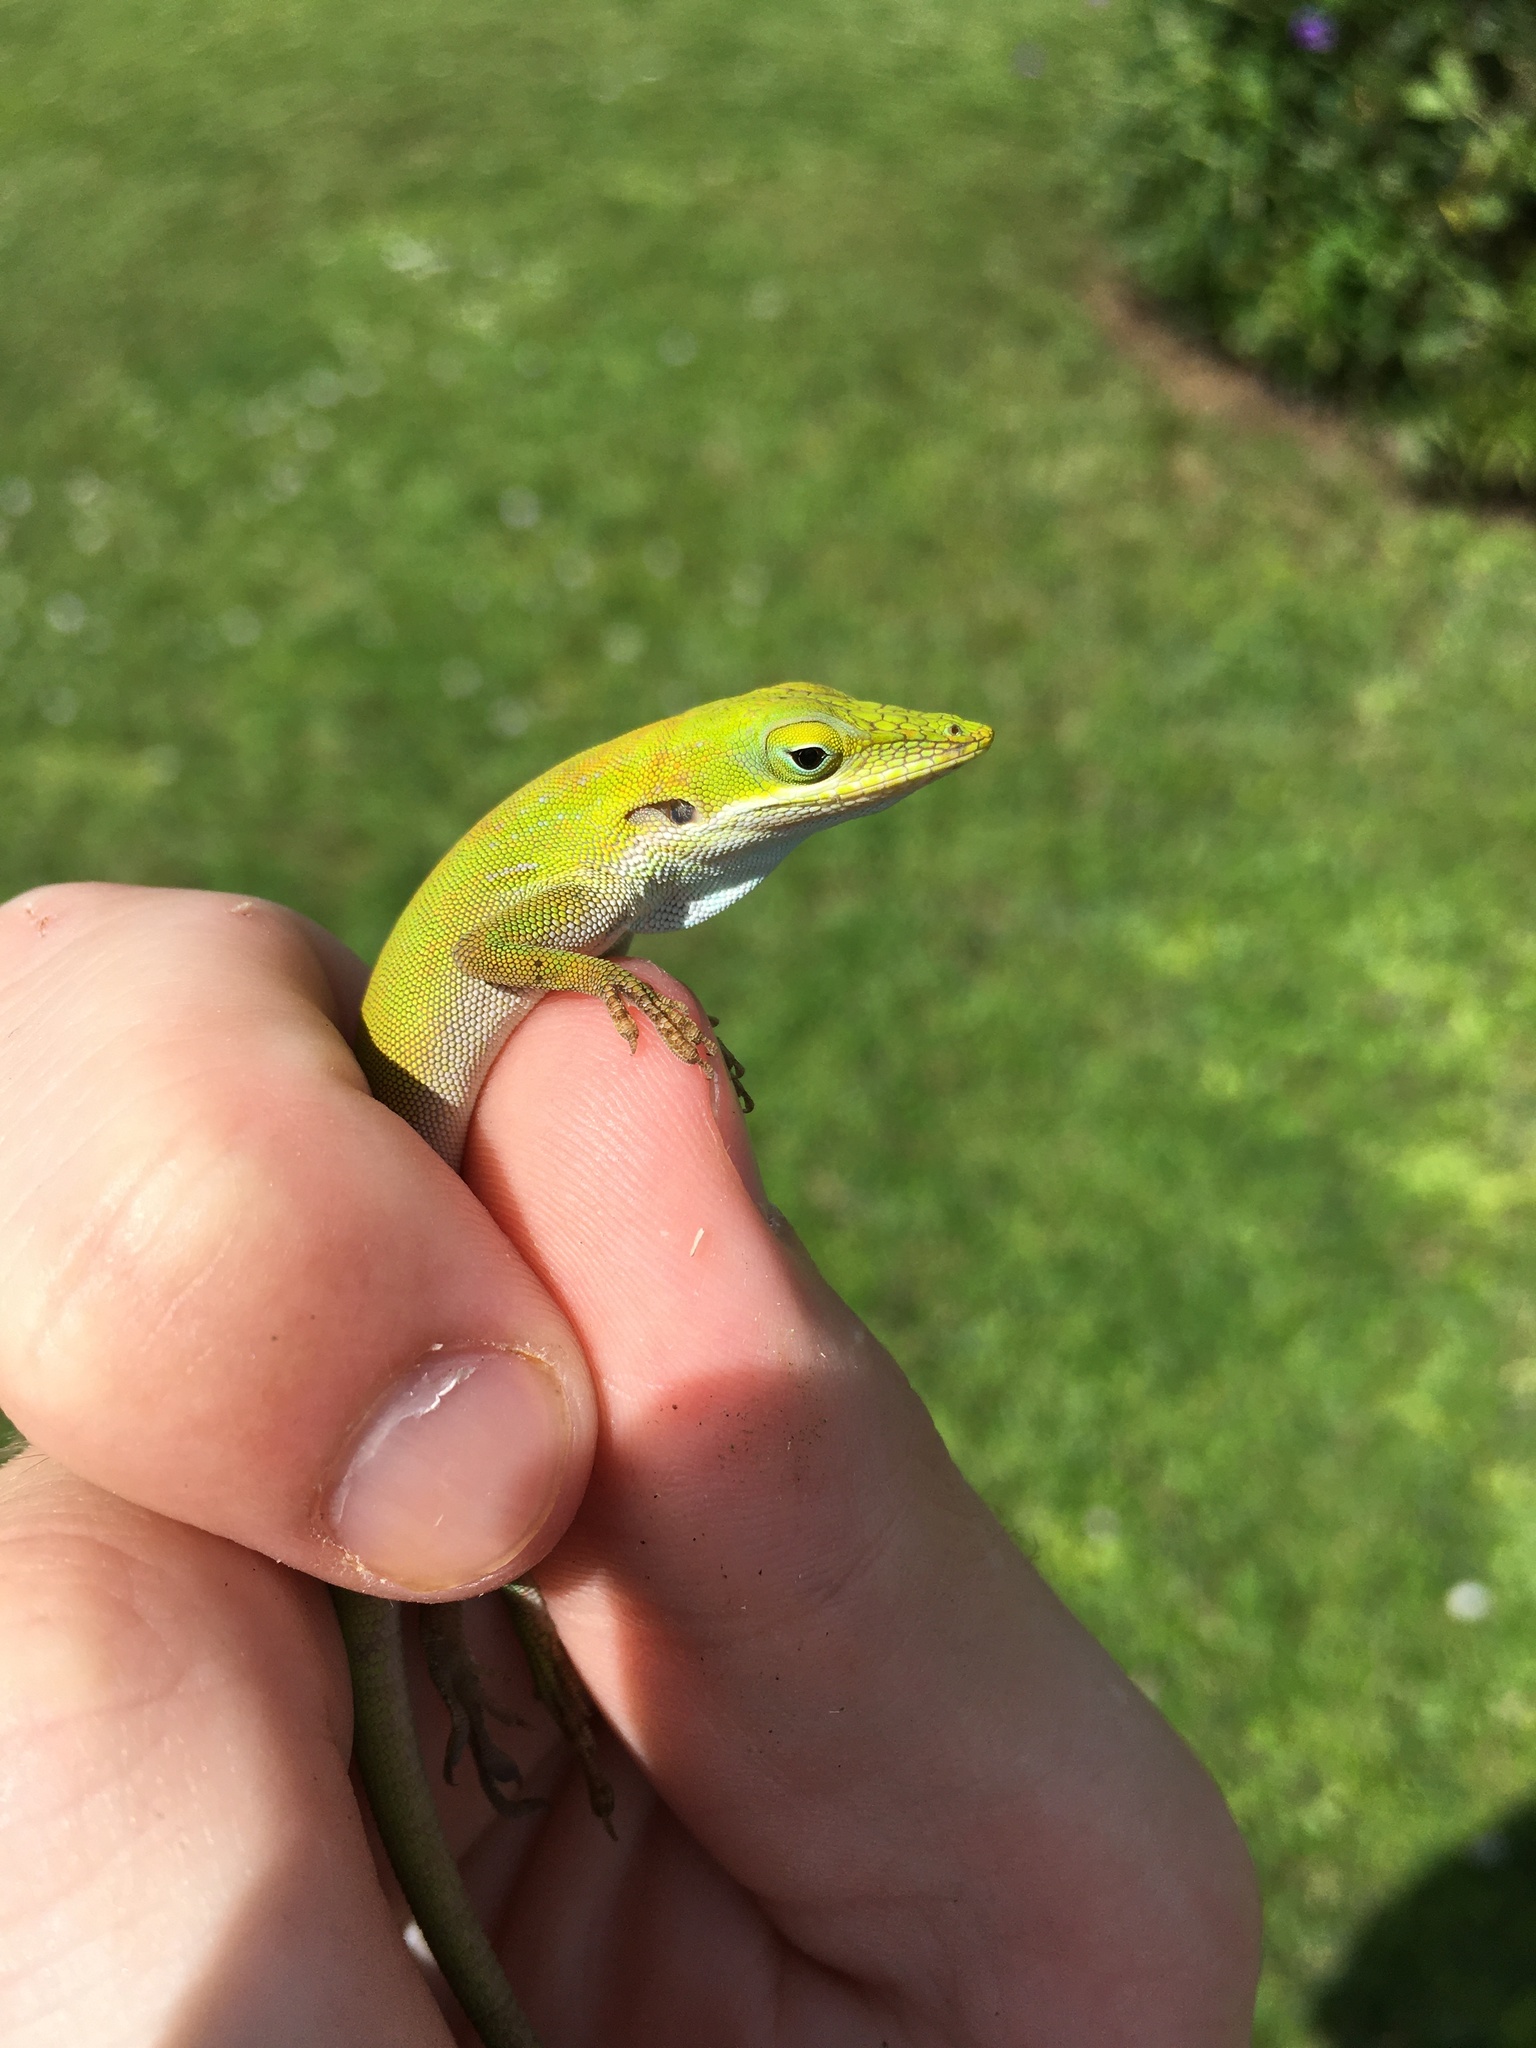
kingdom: Animalia
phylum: Chordata
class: Squamata
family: Dactyloidae
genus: Anolis
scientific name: Anolis allisoni
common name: Allison's anole
